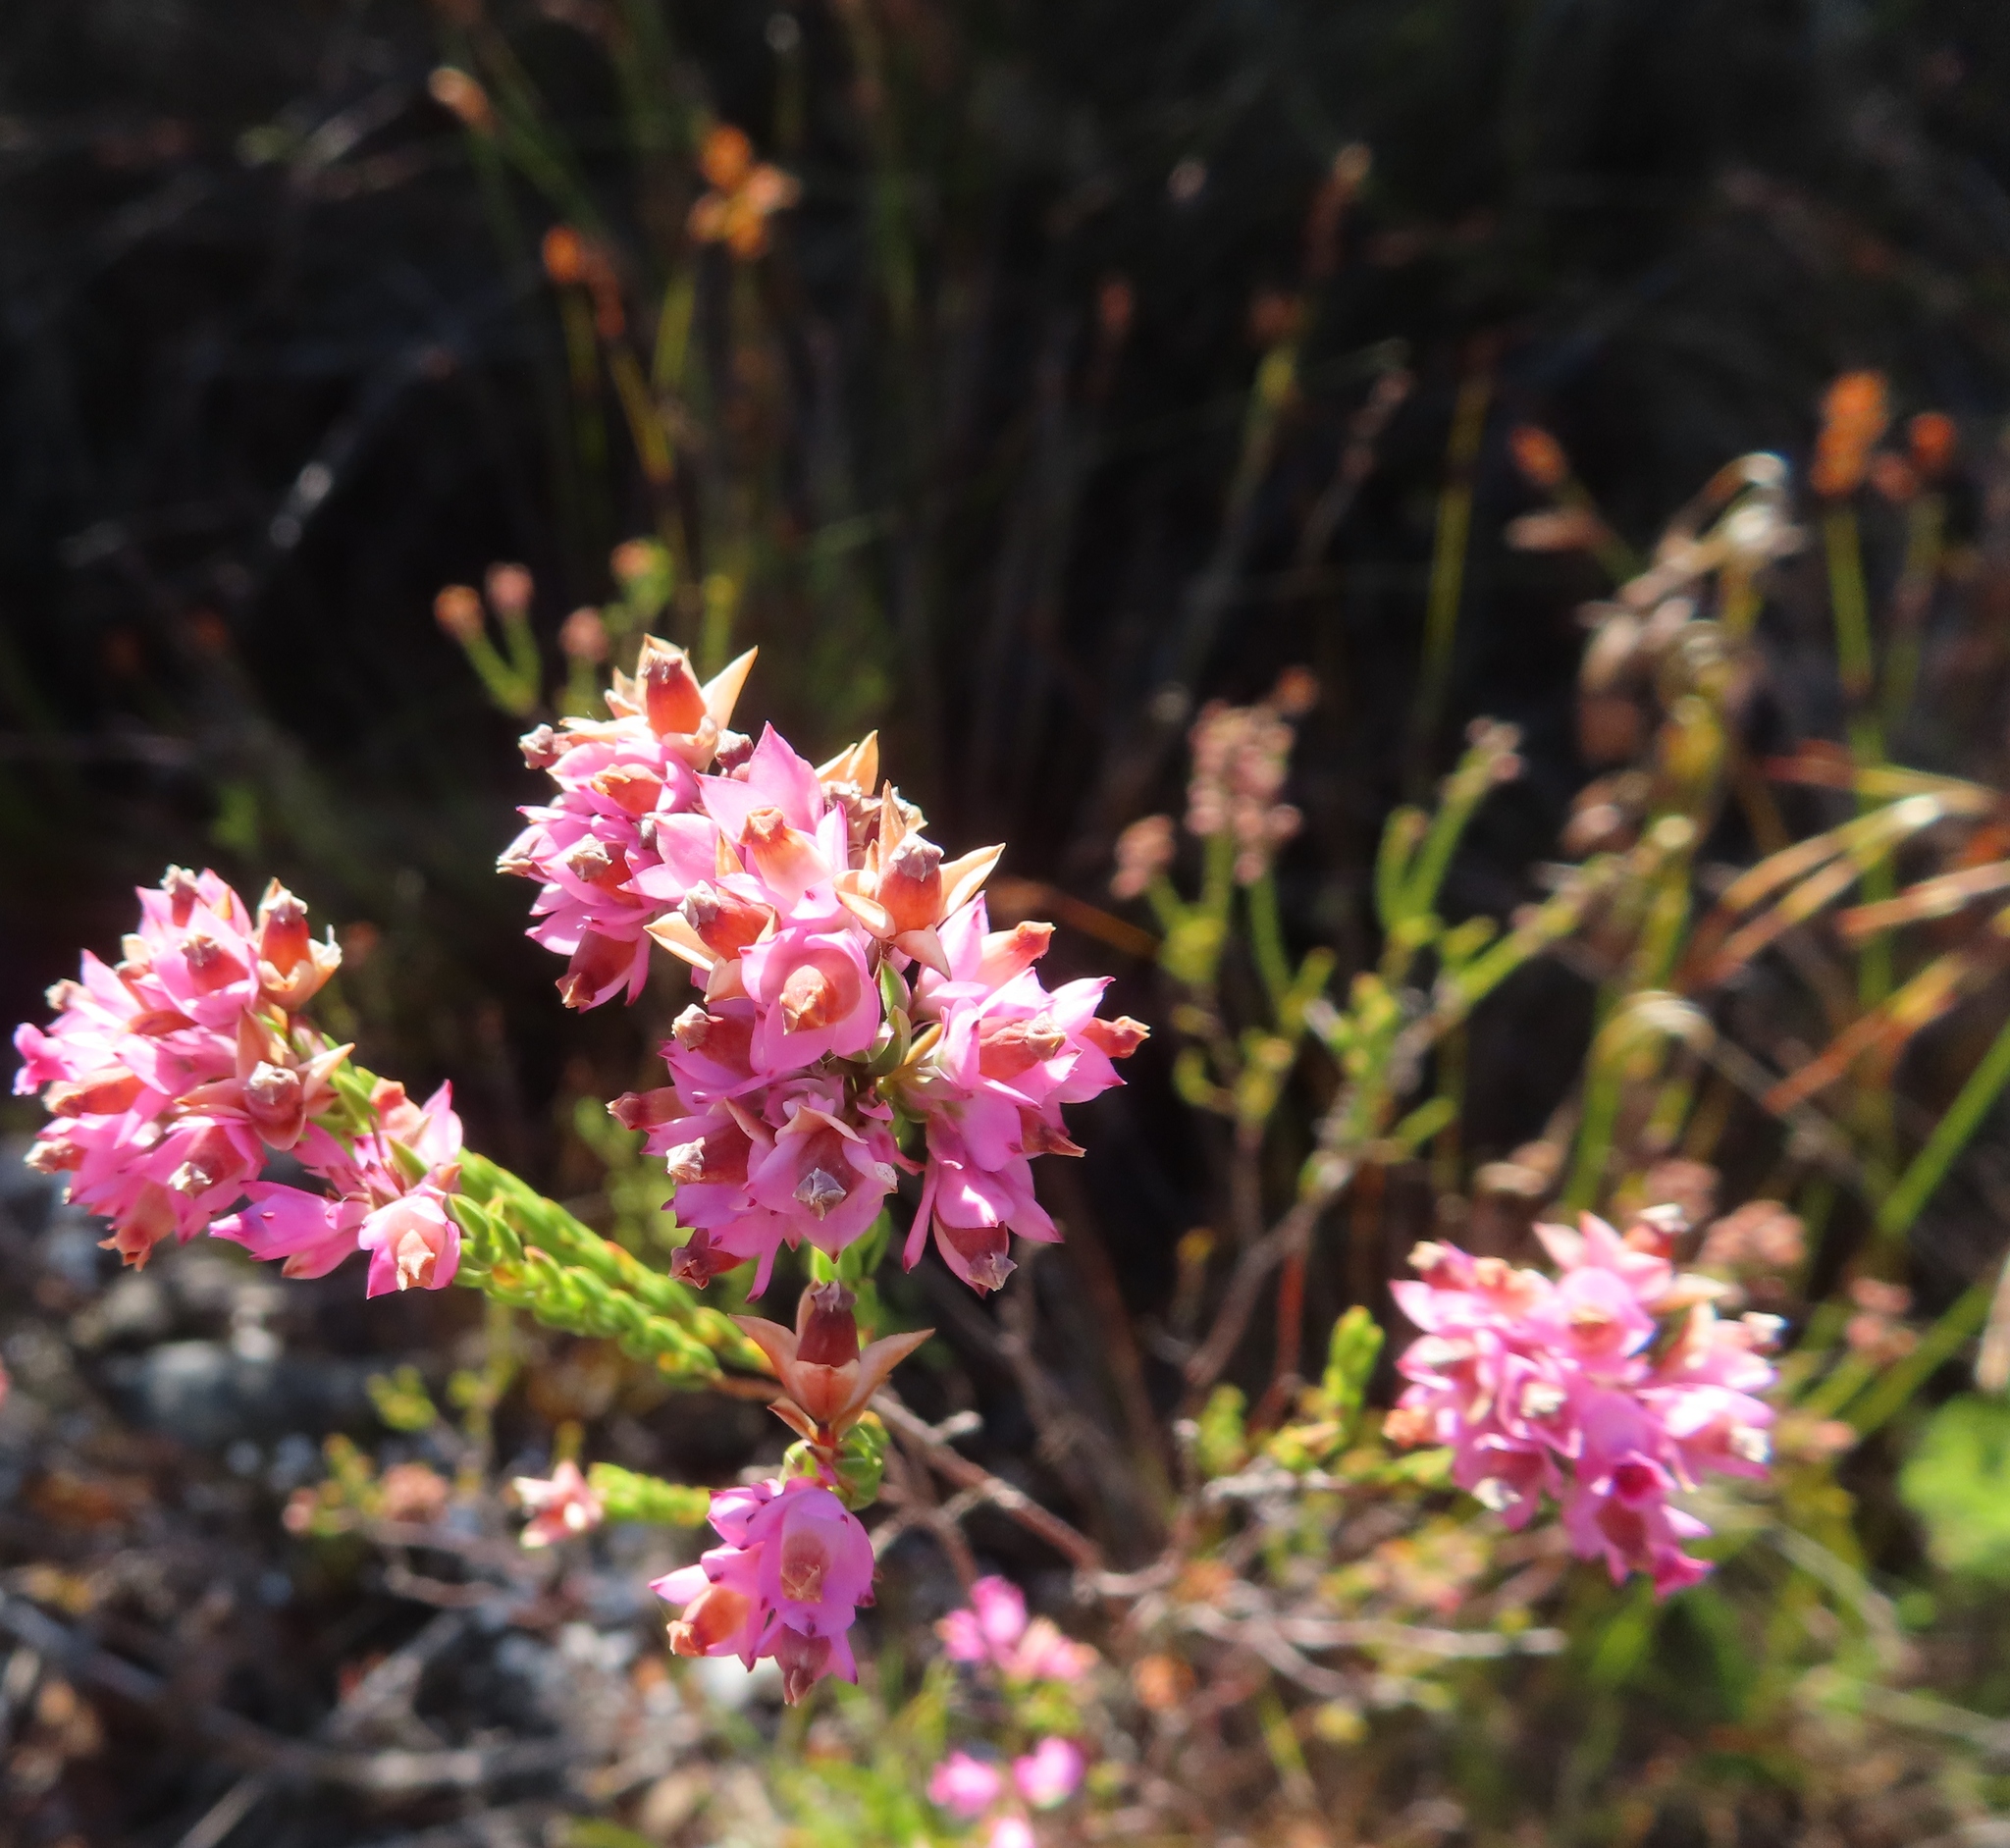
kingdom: Plantae
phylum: Tracheophyta
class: Magnoliopsida
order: Ericales
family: Ericaceae
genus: Erica
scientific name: Erica corifolia
